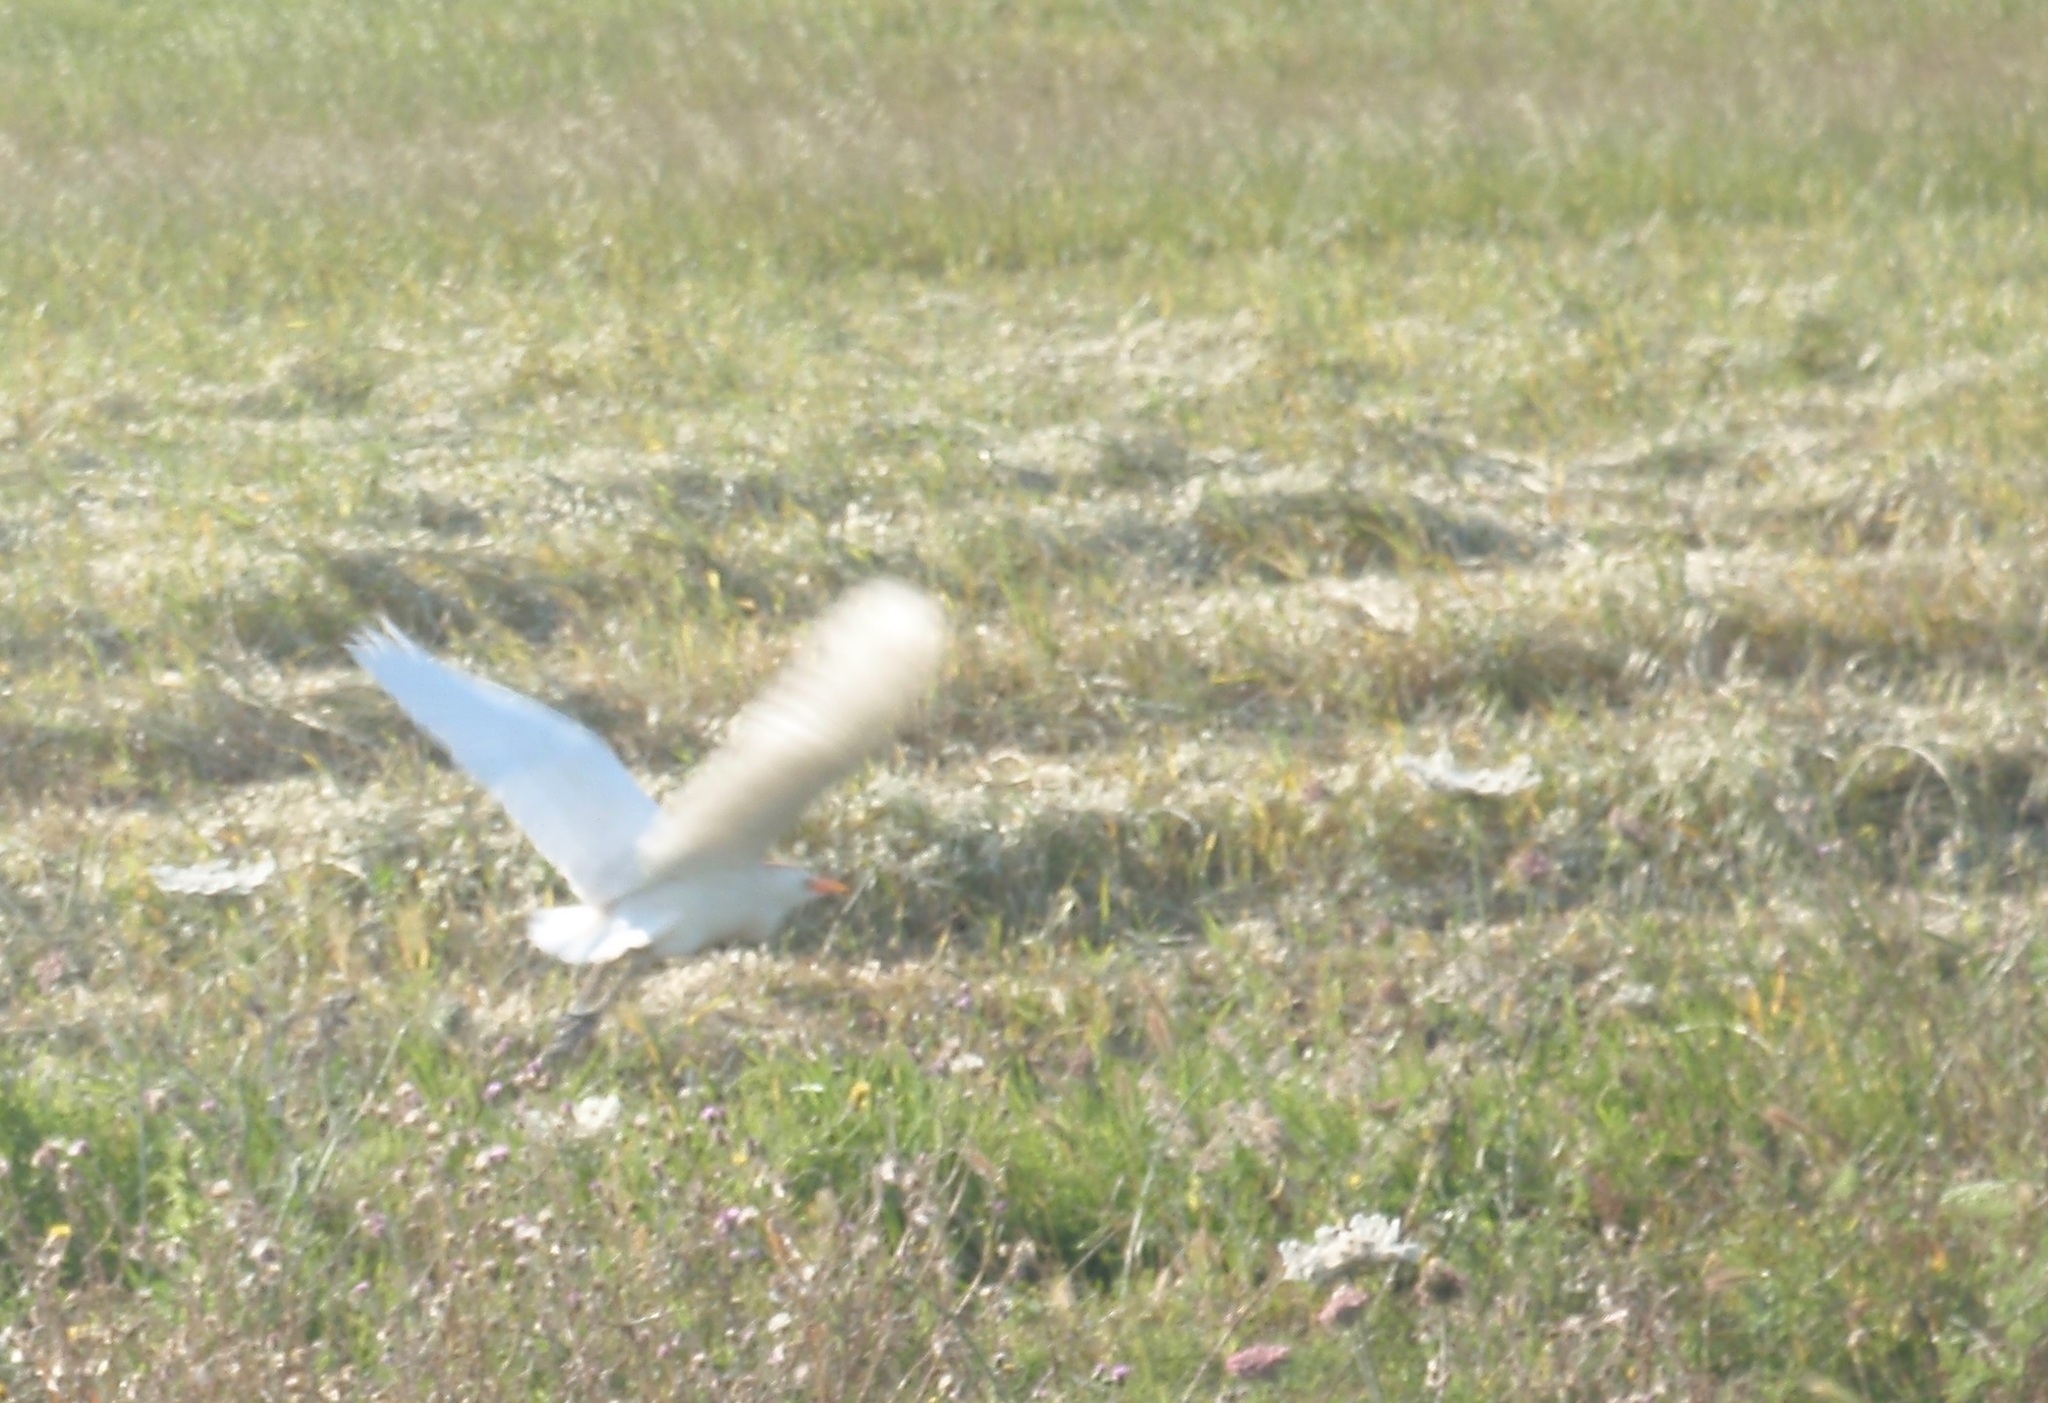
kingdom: Animalia
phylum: Chordata
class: Aves
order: Pelecaniformes
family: Ardeidae
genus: Bubulcus
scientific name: Bubulcus ibis
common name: Cattle egret
